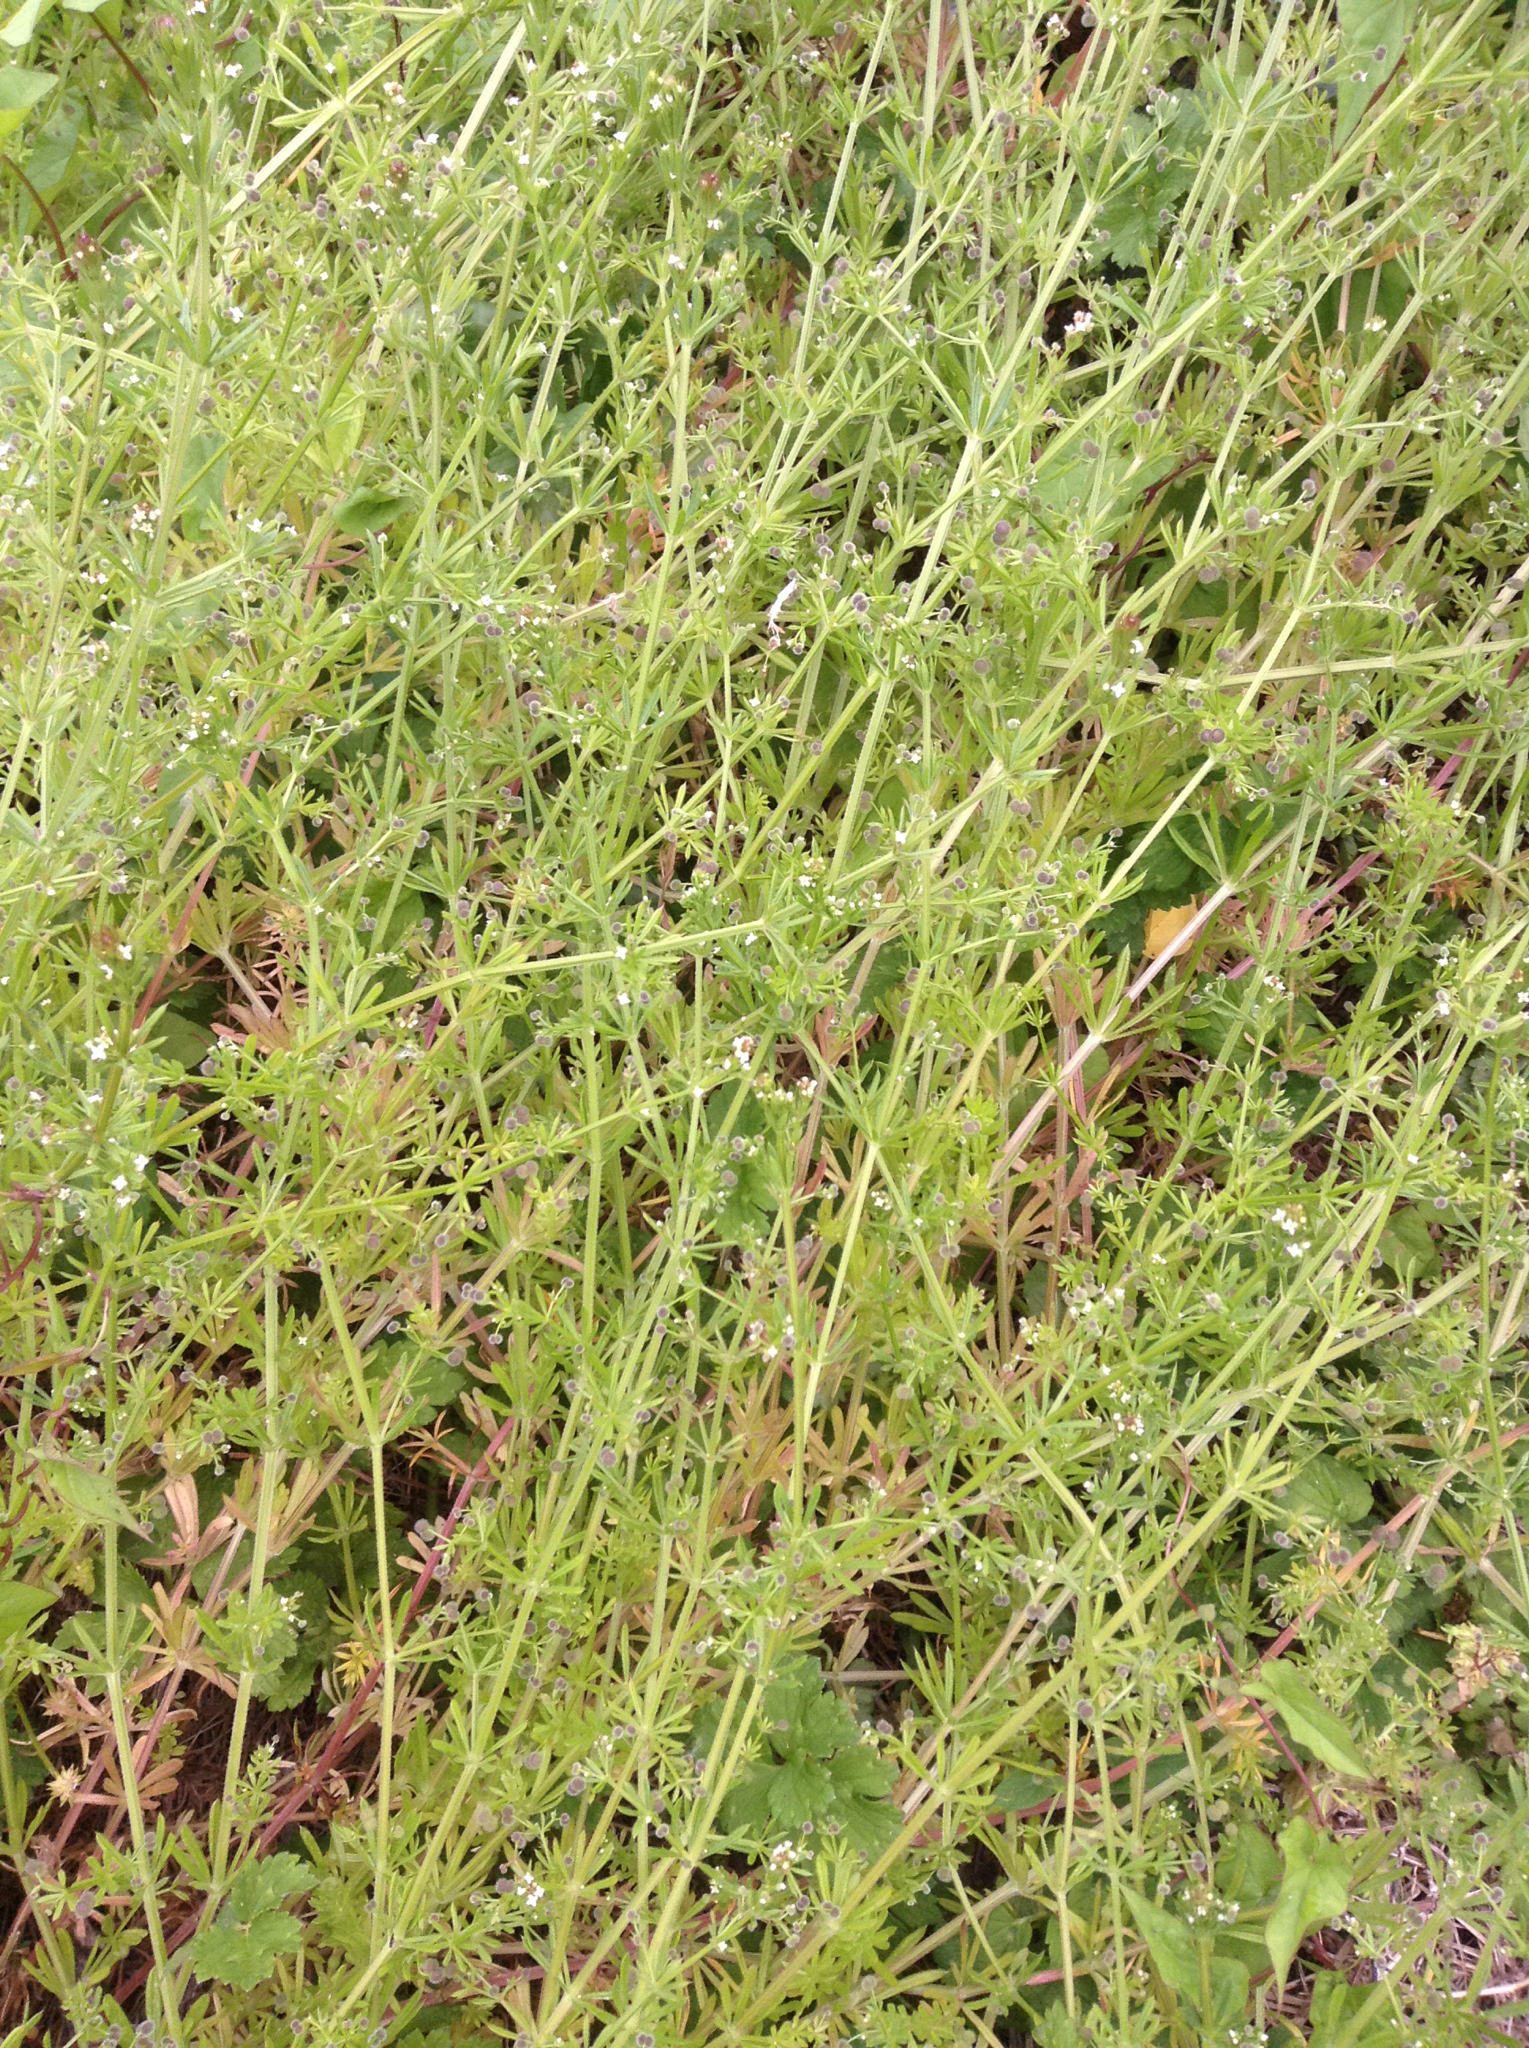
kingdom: Plantae
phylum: Tracheophyta
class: Magnoliopsida
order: Gentianales
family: Rubiaceae
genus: Galium
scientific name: Galium aparine
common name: Cleavers
